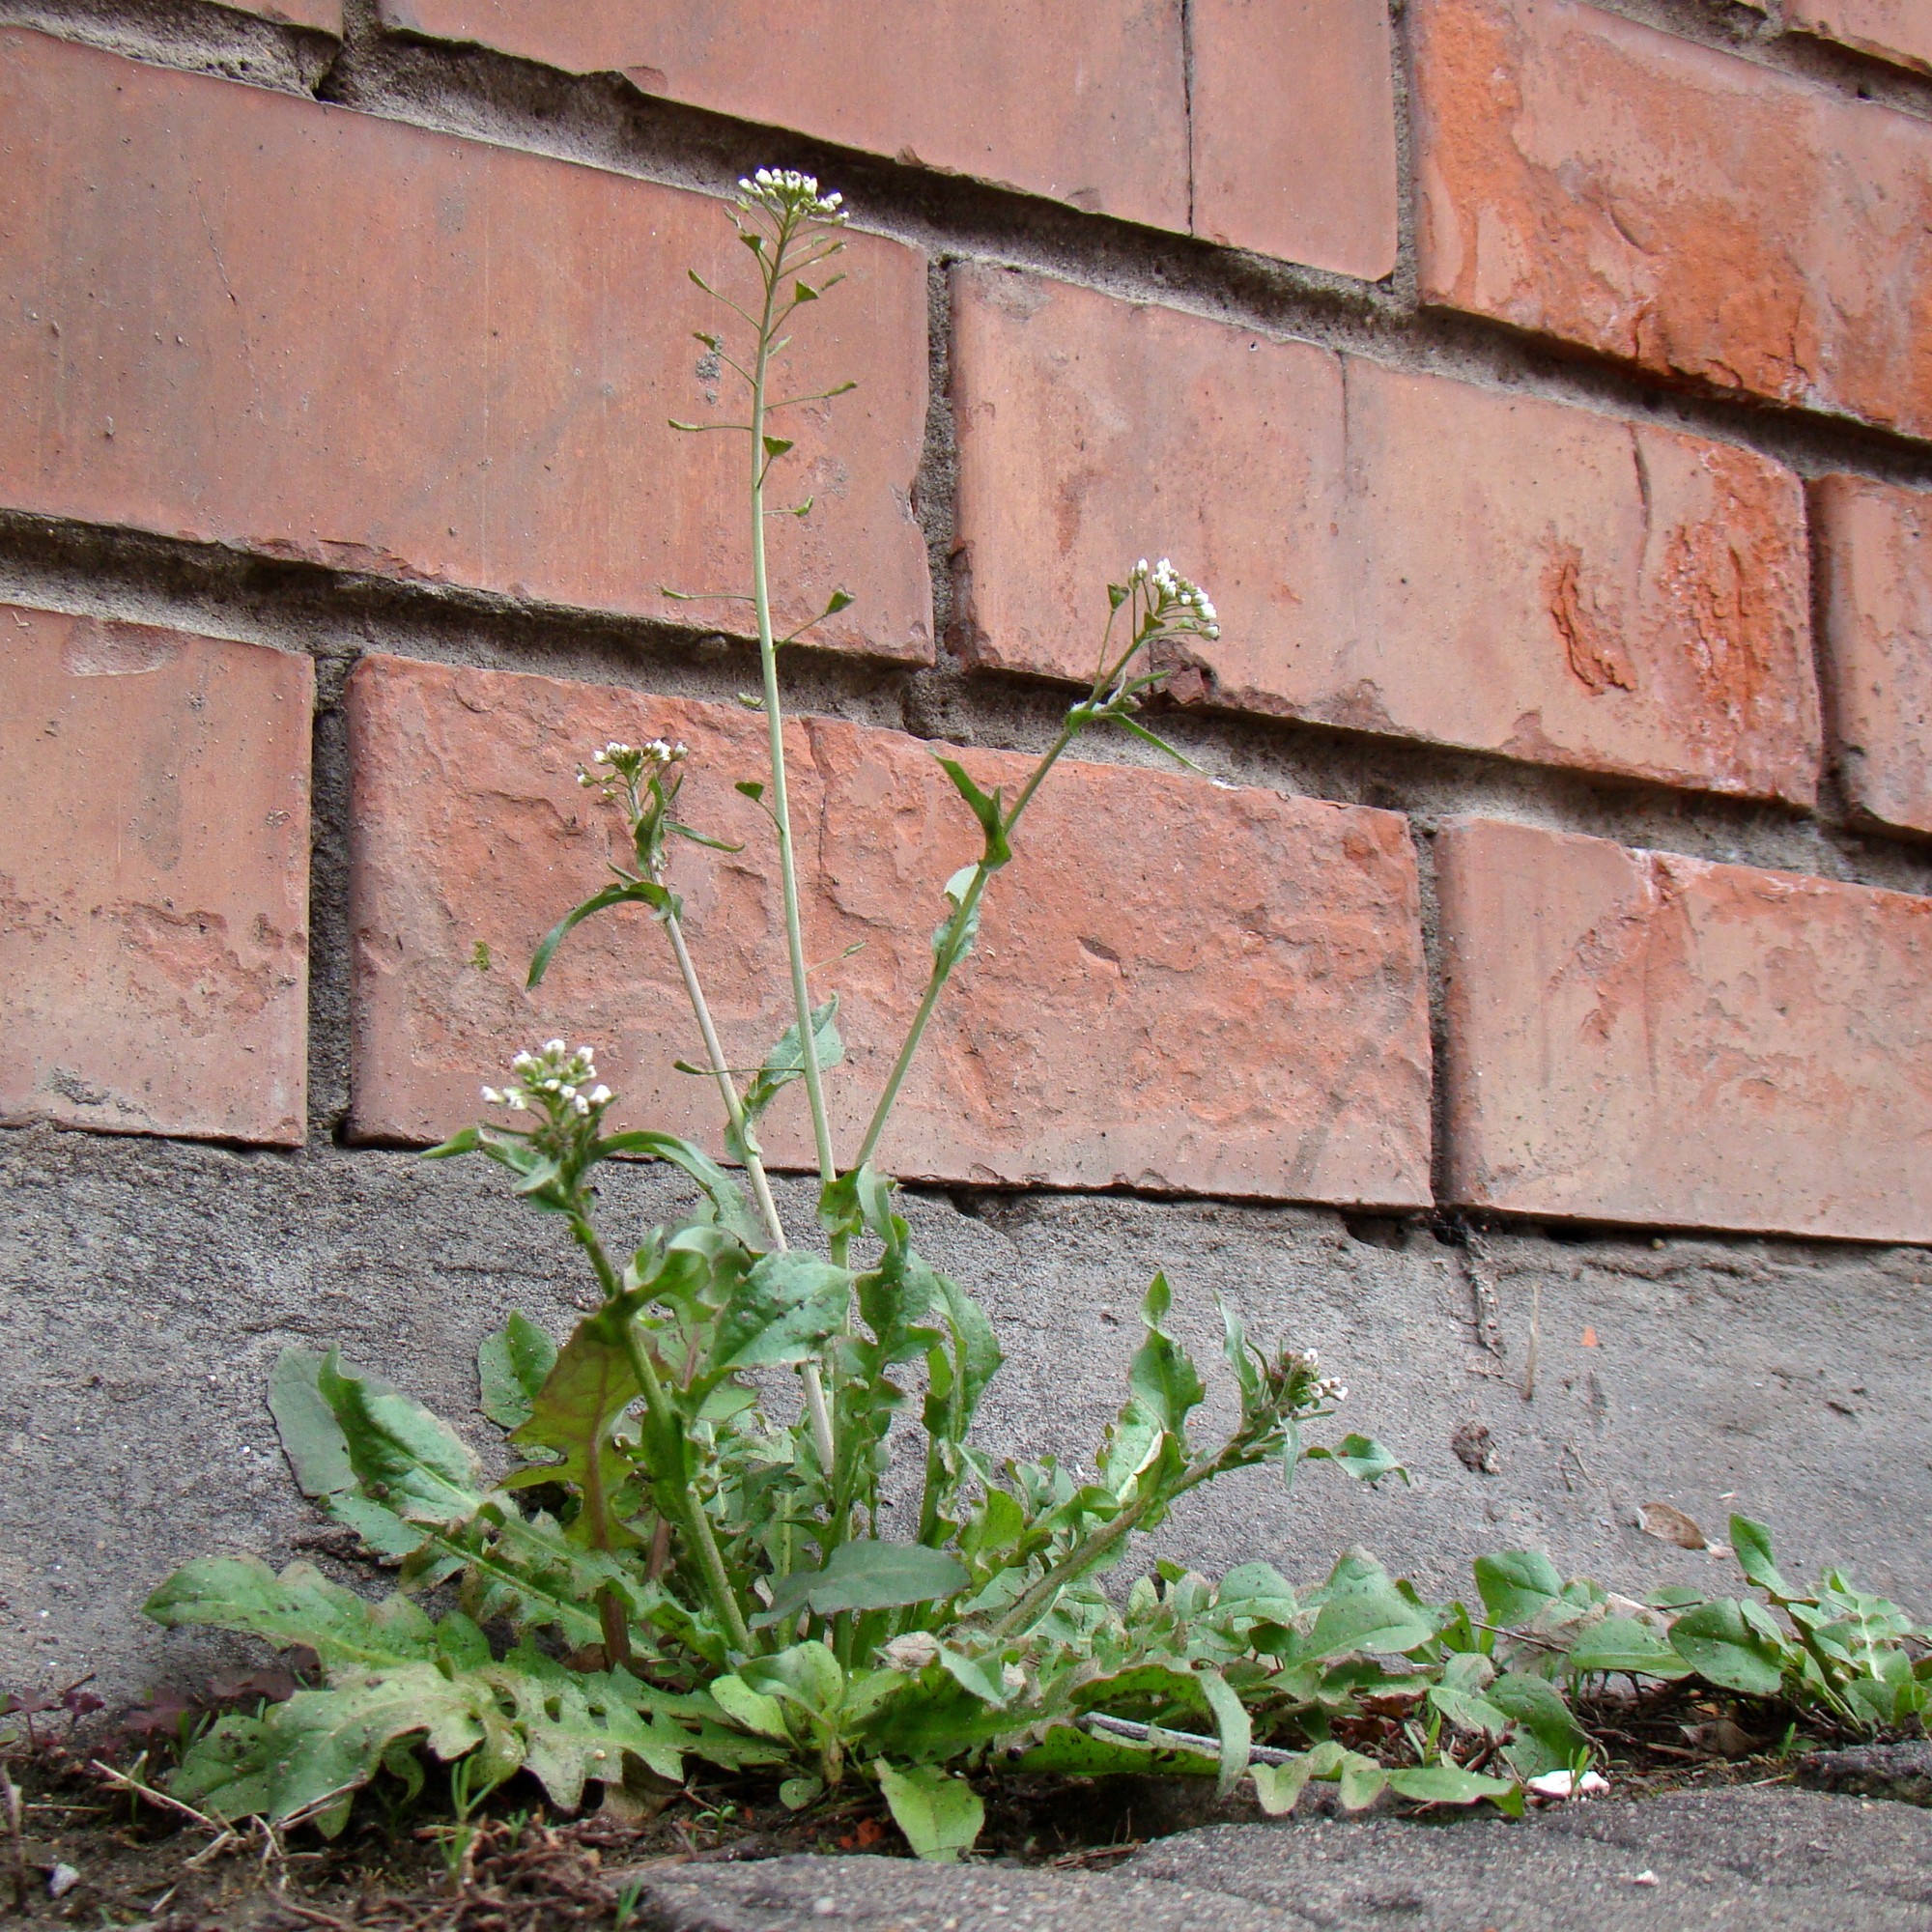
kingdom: Plantae
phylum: Tracheophyta
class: Magnoliopsida
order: Brassicales
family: Brassicaceae
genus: Capsella
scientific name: Capsella bursa-pastoris
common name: Shepherd's purse
